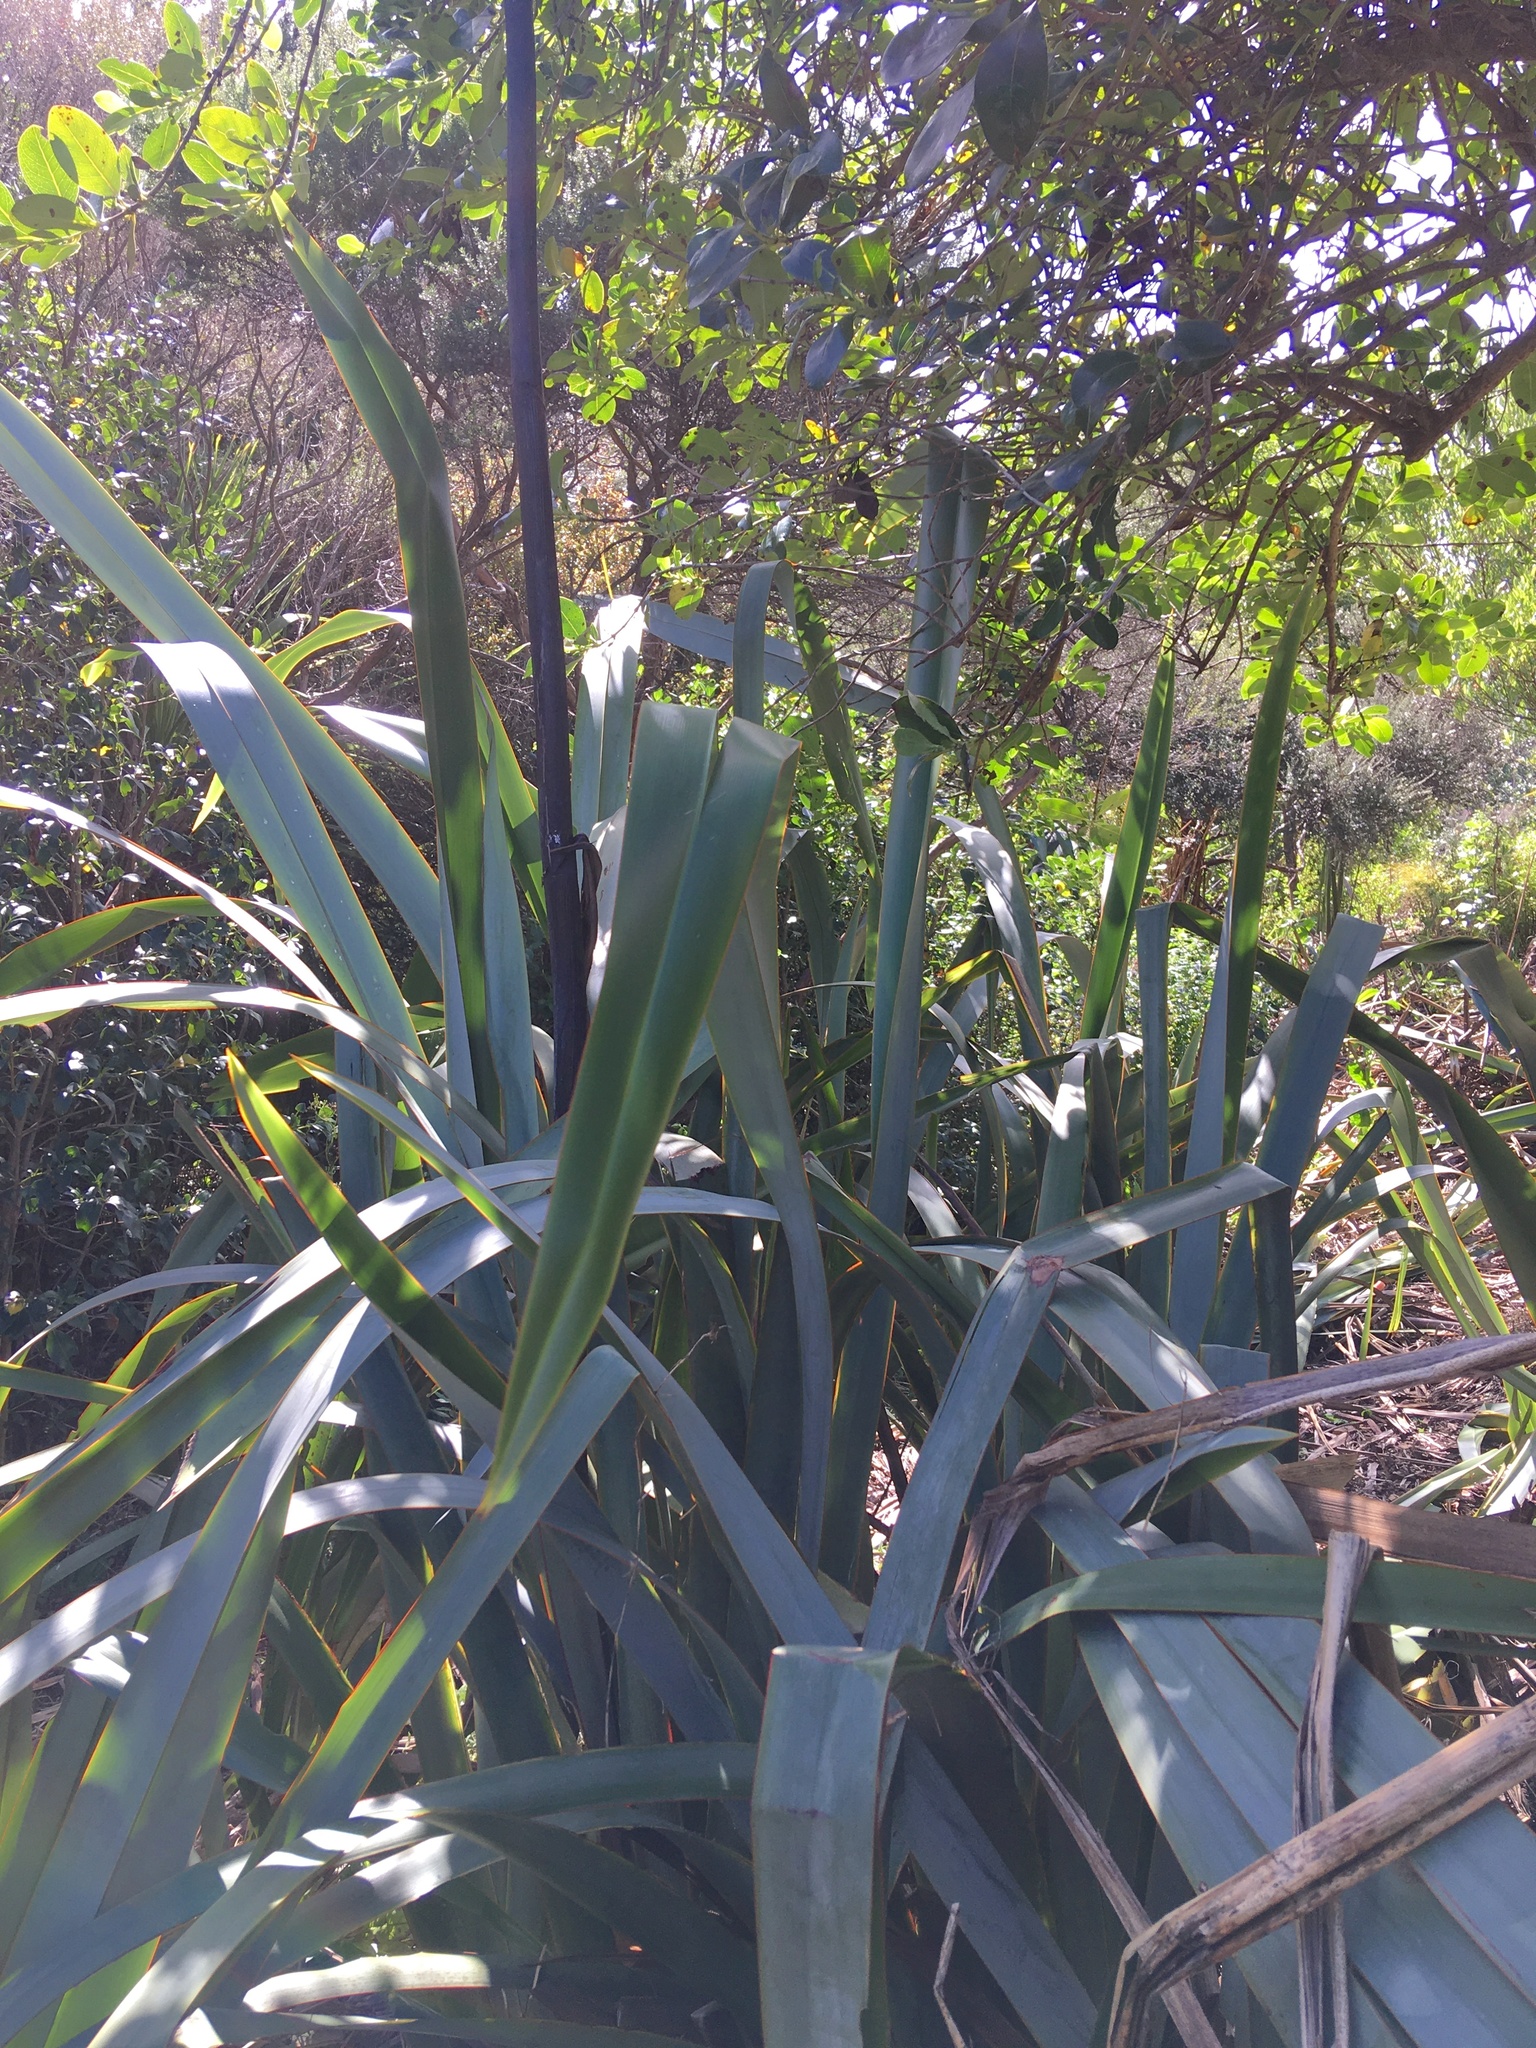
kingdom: Plantae
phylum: Tracheophyta
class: Liliopsida
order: Asparagales
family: Asphodelaceae
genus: Phormium
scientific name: Phormium tenax
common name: New zealand flax
